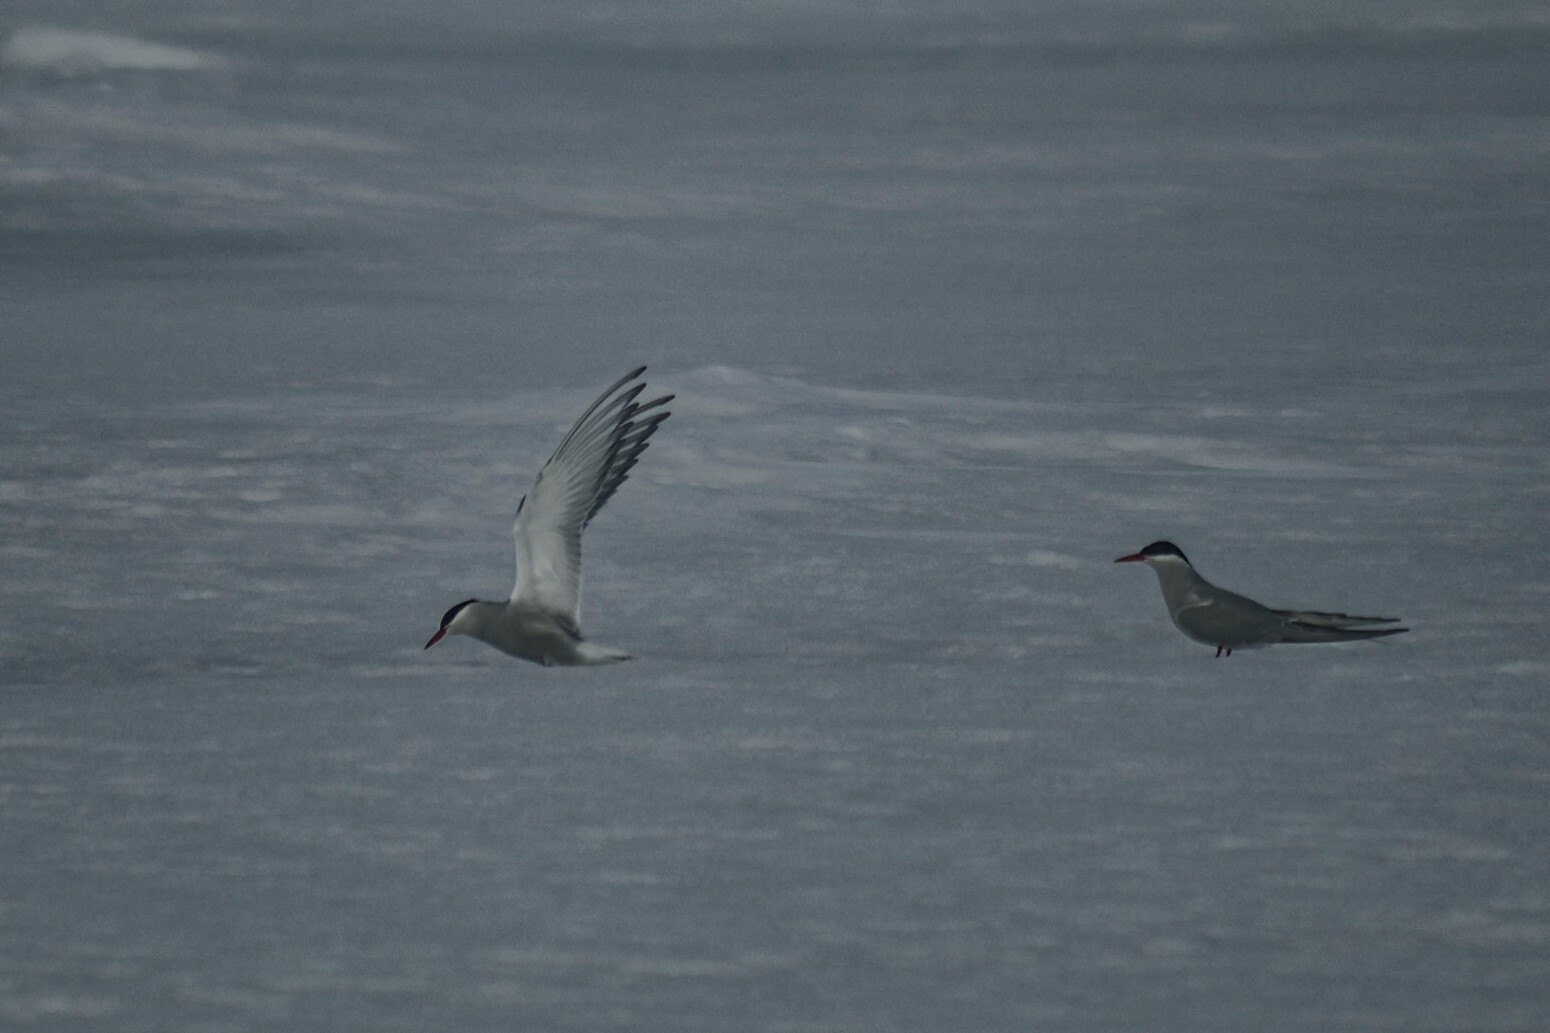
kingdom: Animalia
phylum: Chordata
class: Aves
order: Charadriiformes
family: Laridae
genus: Sterna
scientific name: Sterna paradisaea
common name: Arctic tern
